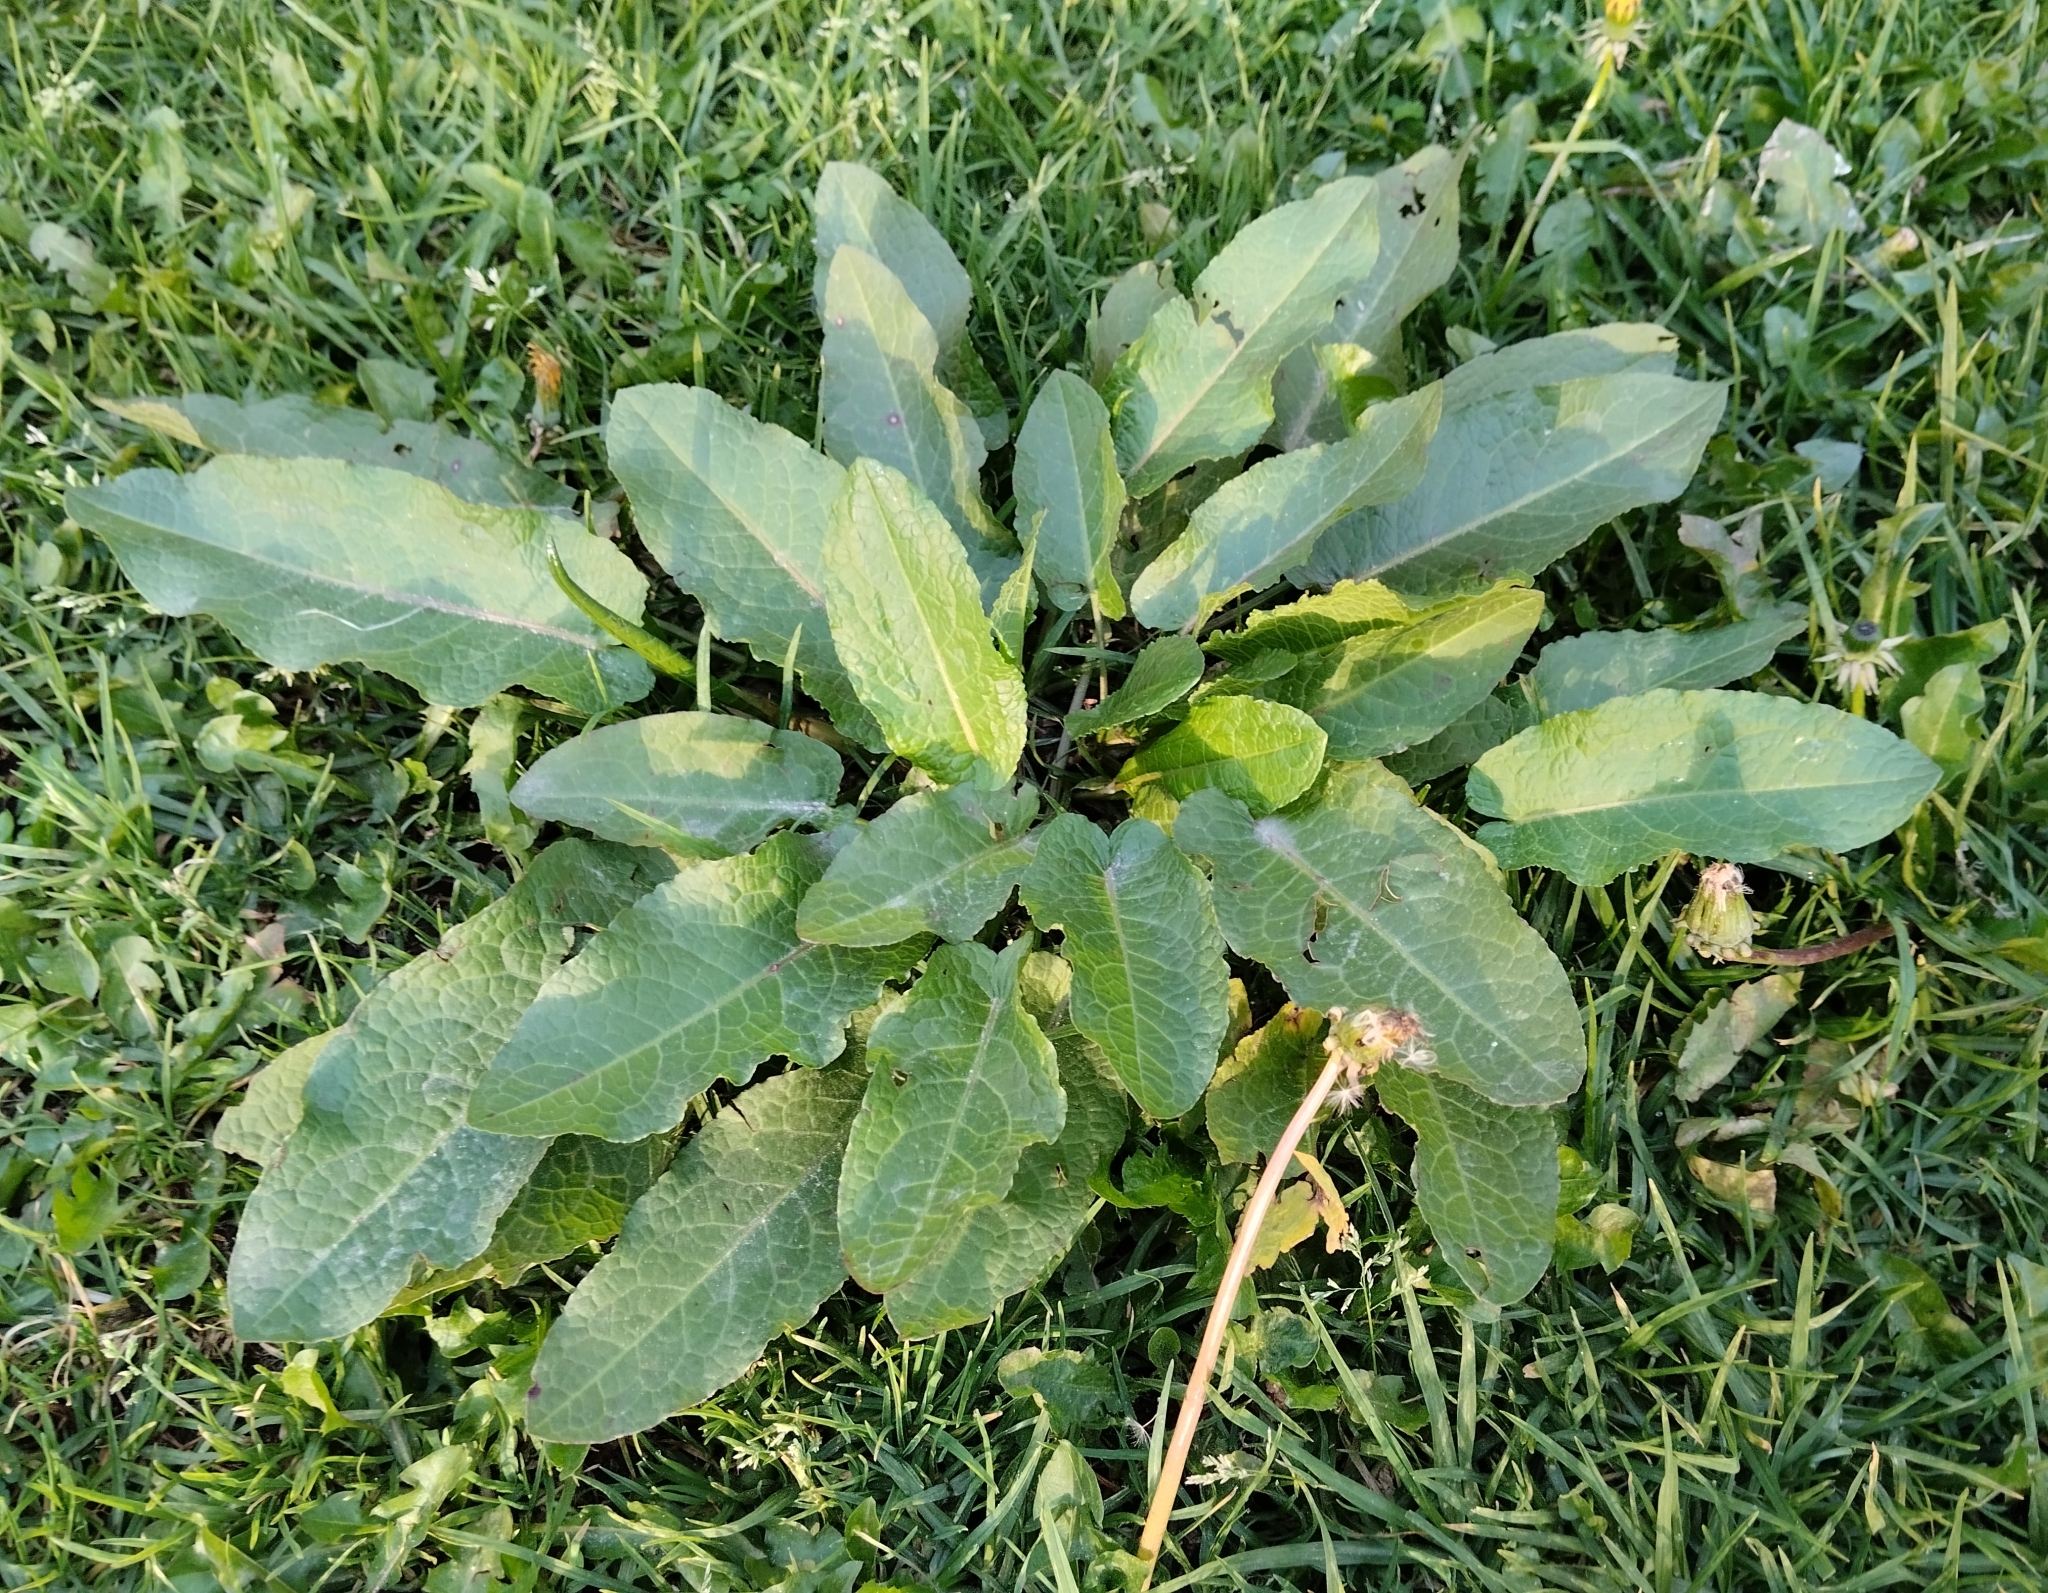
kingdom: Plantae
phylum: Tracheophyta
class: Magnoliopsida
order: Caryophyllales
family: Polygonaceae
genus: Rumex
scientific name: Rumex obtusifolius
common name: Bitter dock
